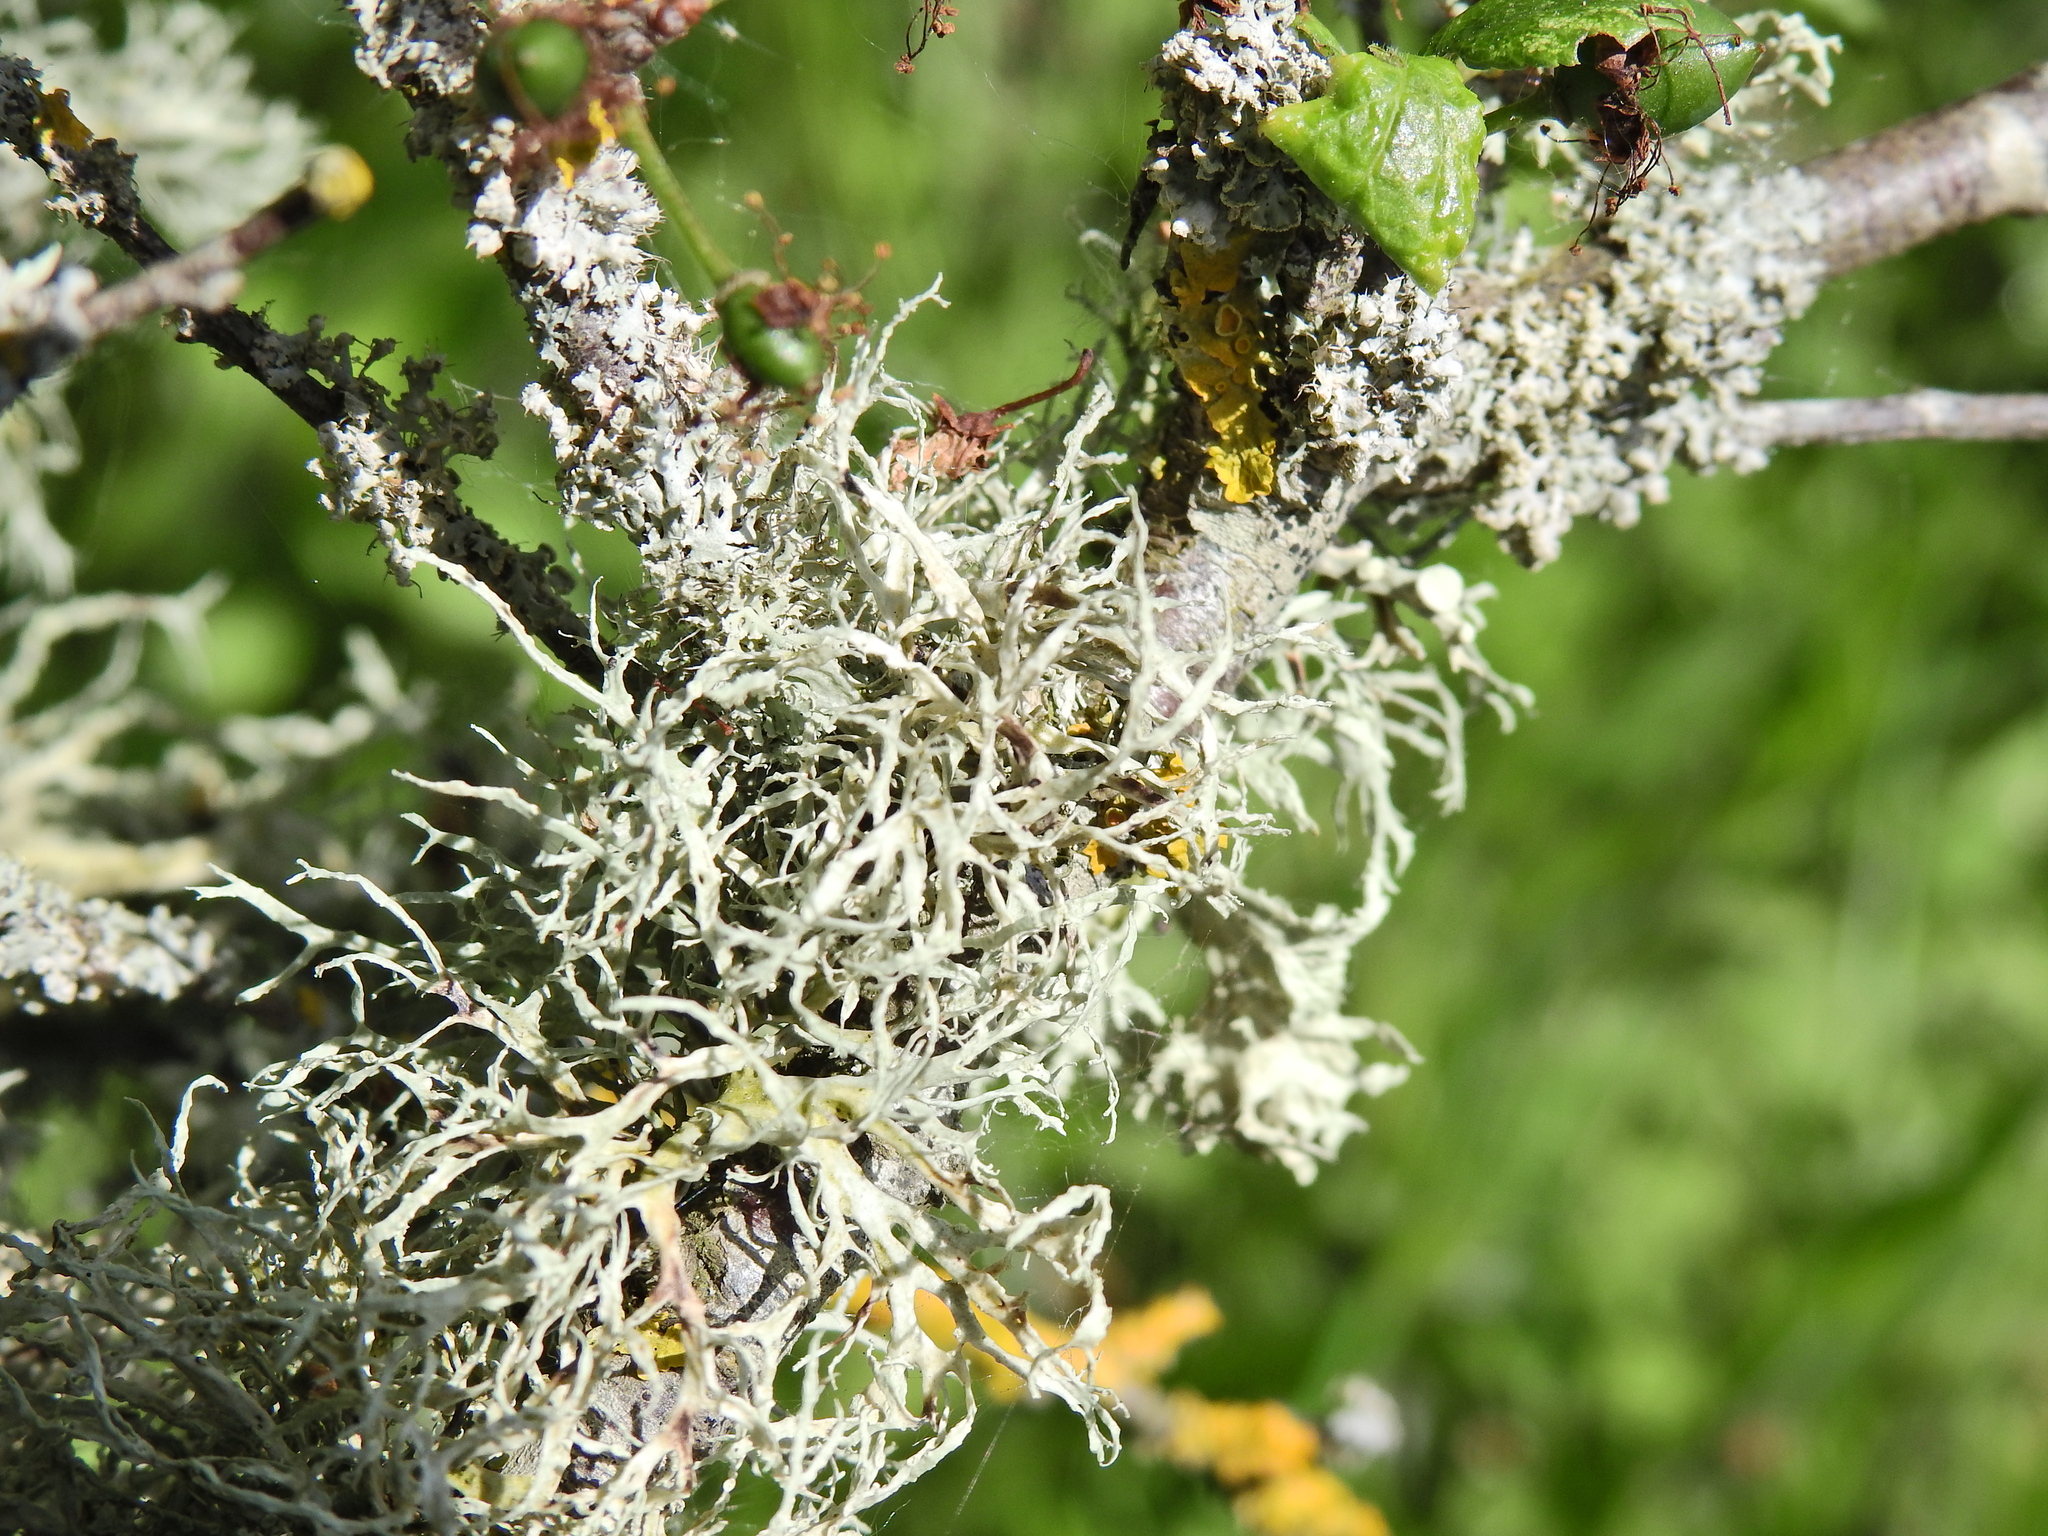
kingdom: Fungi
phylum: Ascomycota
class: Lecanoromycetes
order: Lecanorales
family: Ramalinaceae
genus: Ramalina
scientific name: Ramalina farinacea
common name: Farinose cartilage lichen
